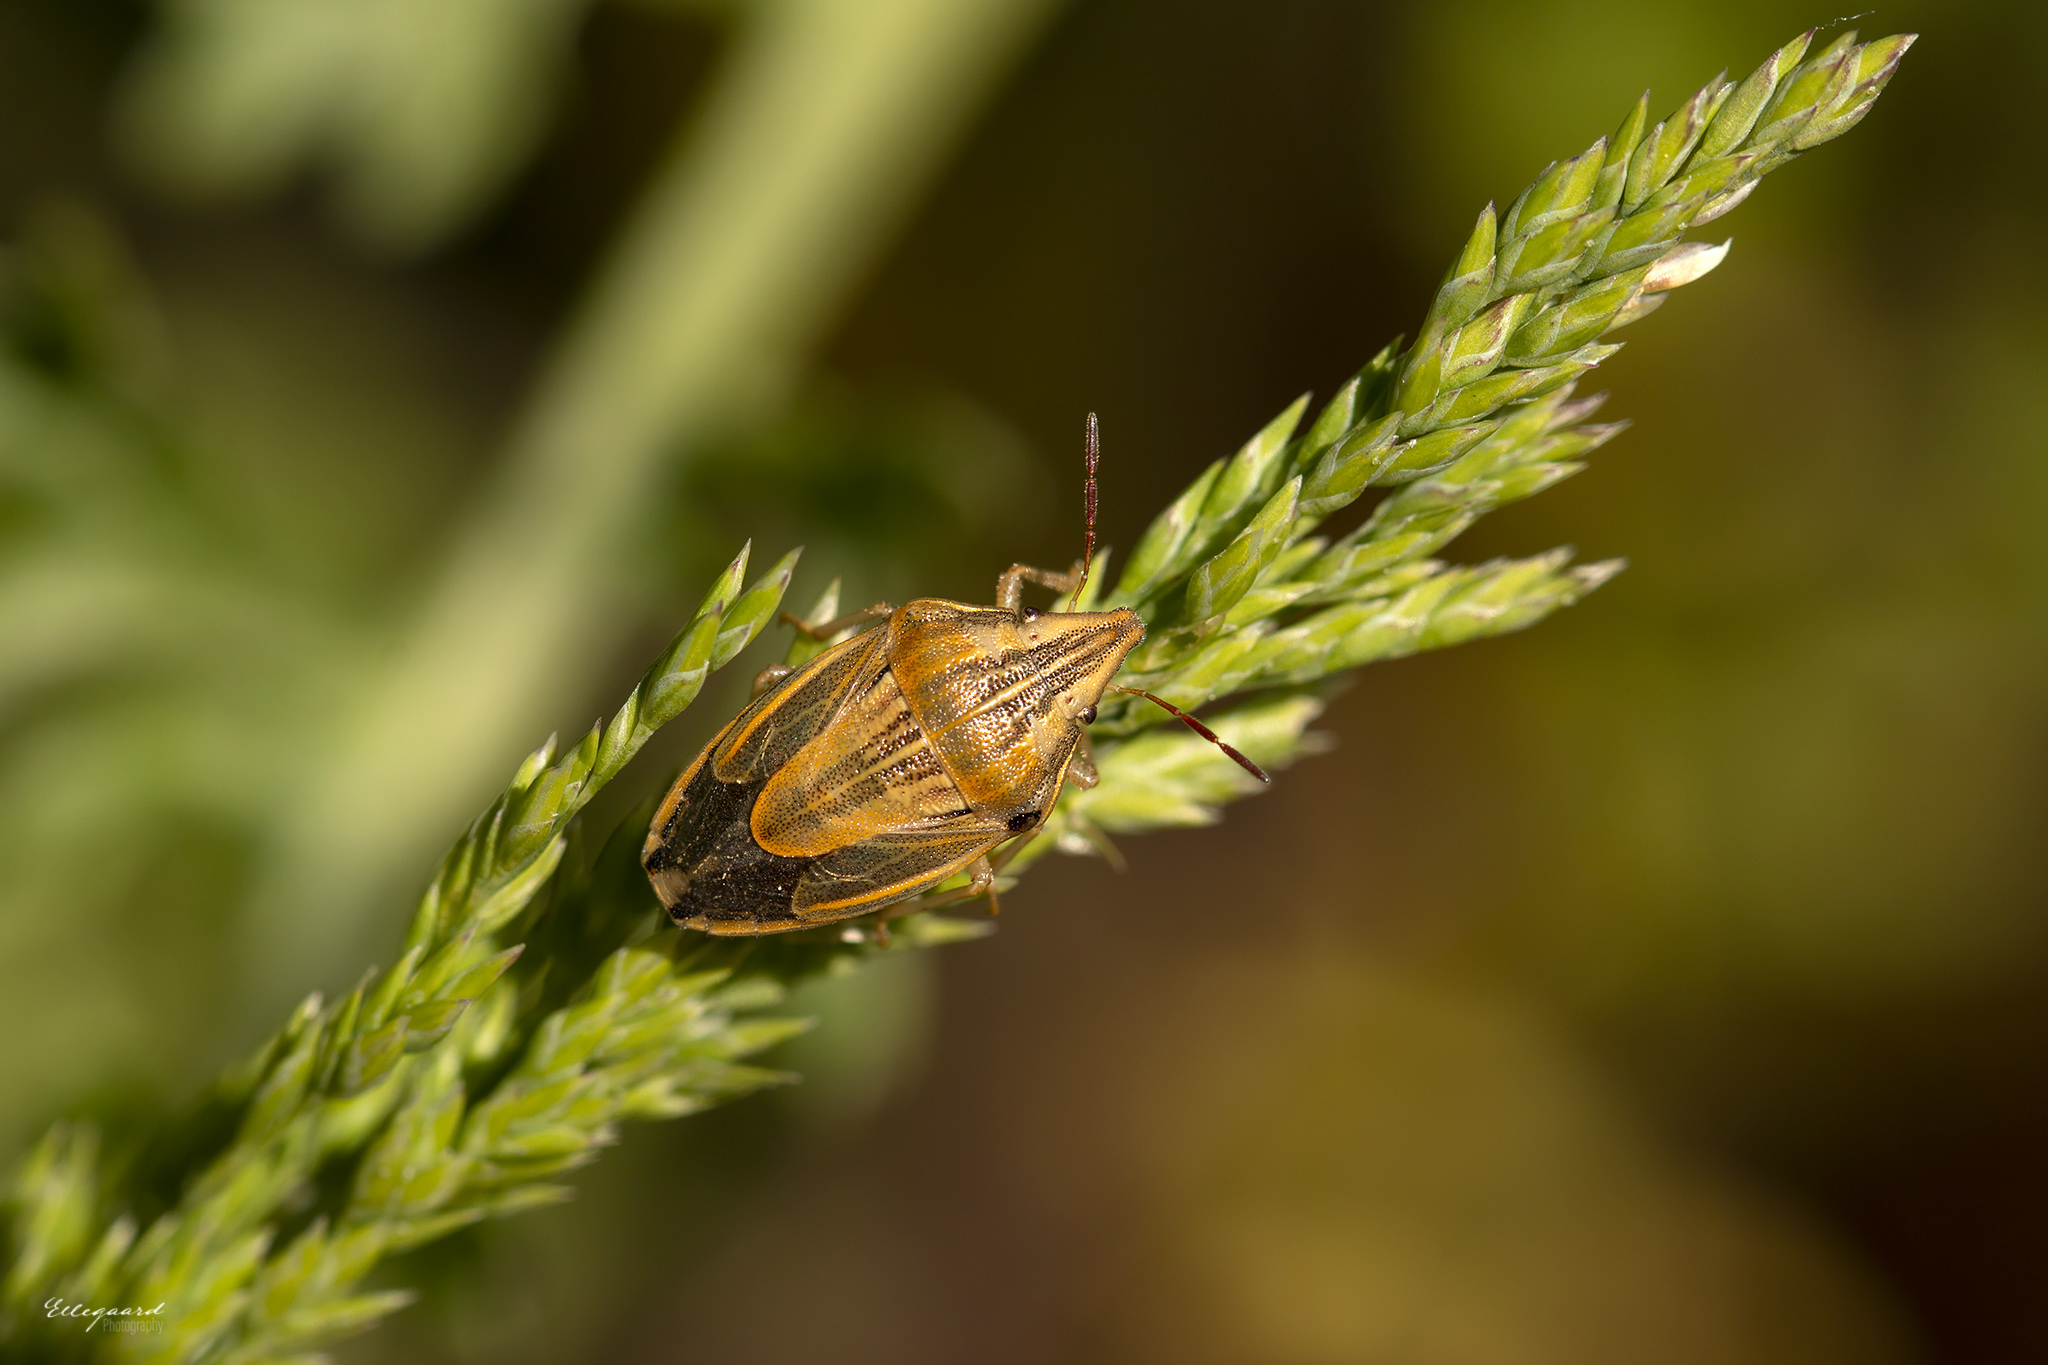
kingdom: Animalia
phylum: Arthropoda
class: Insecta
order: Hemiptera
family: Pentatomidae
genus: Aelia
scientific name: Aelia acuminata
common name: Bishop's mitre
